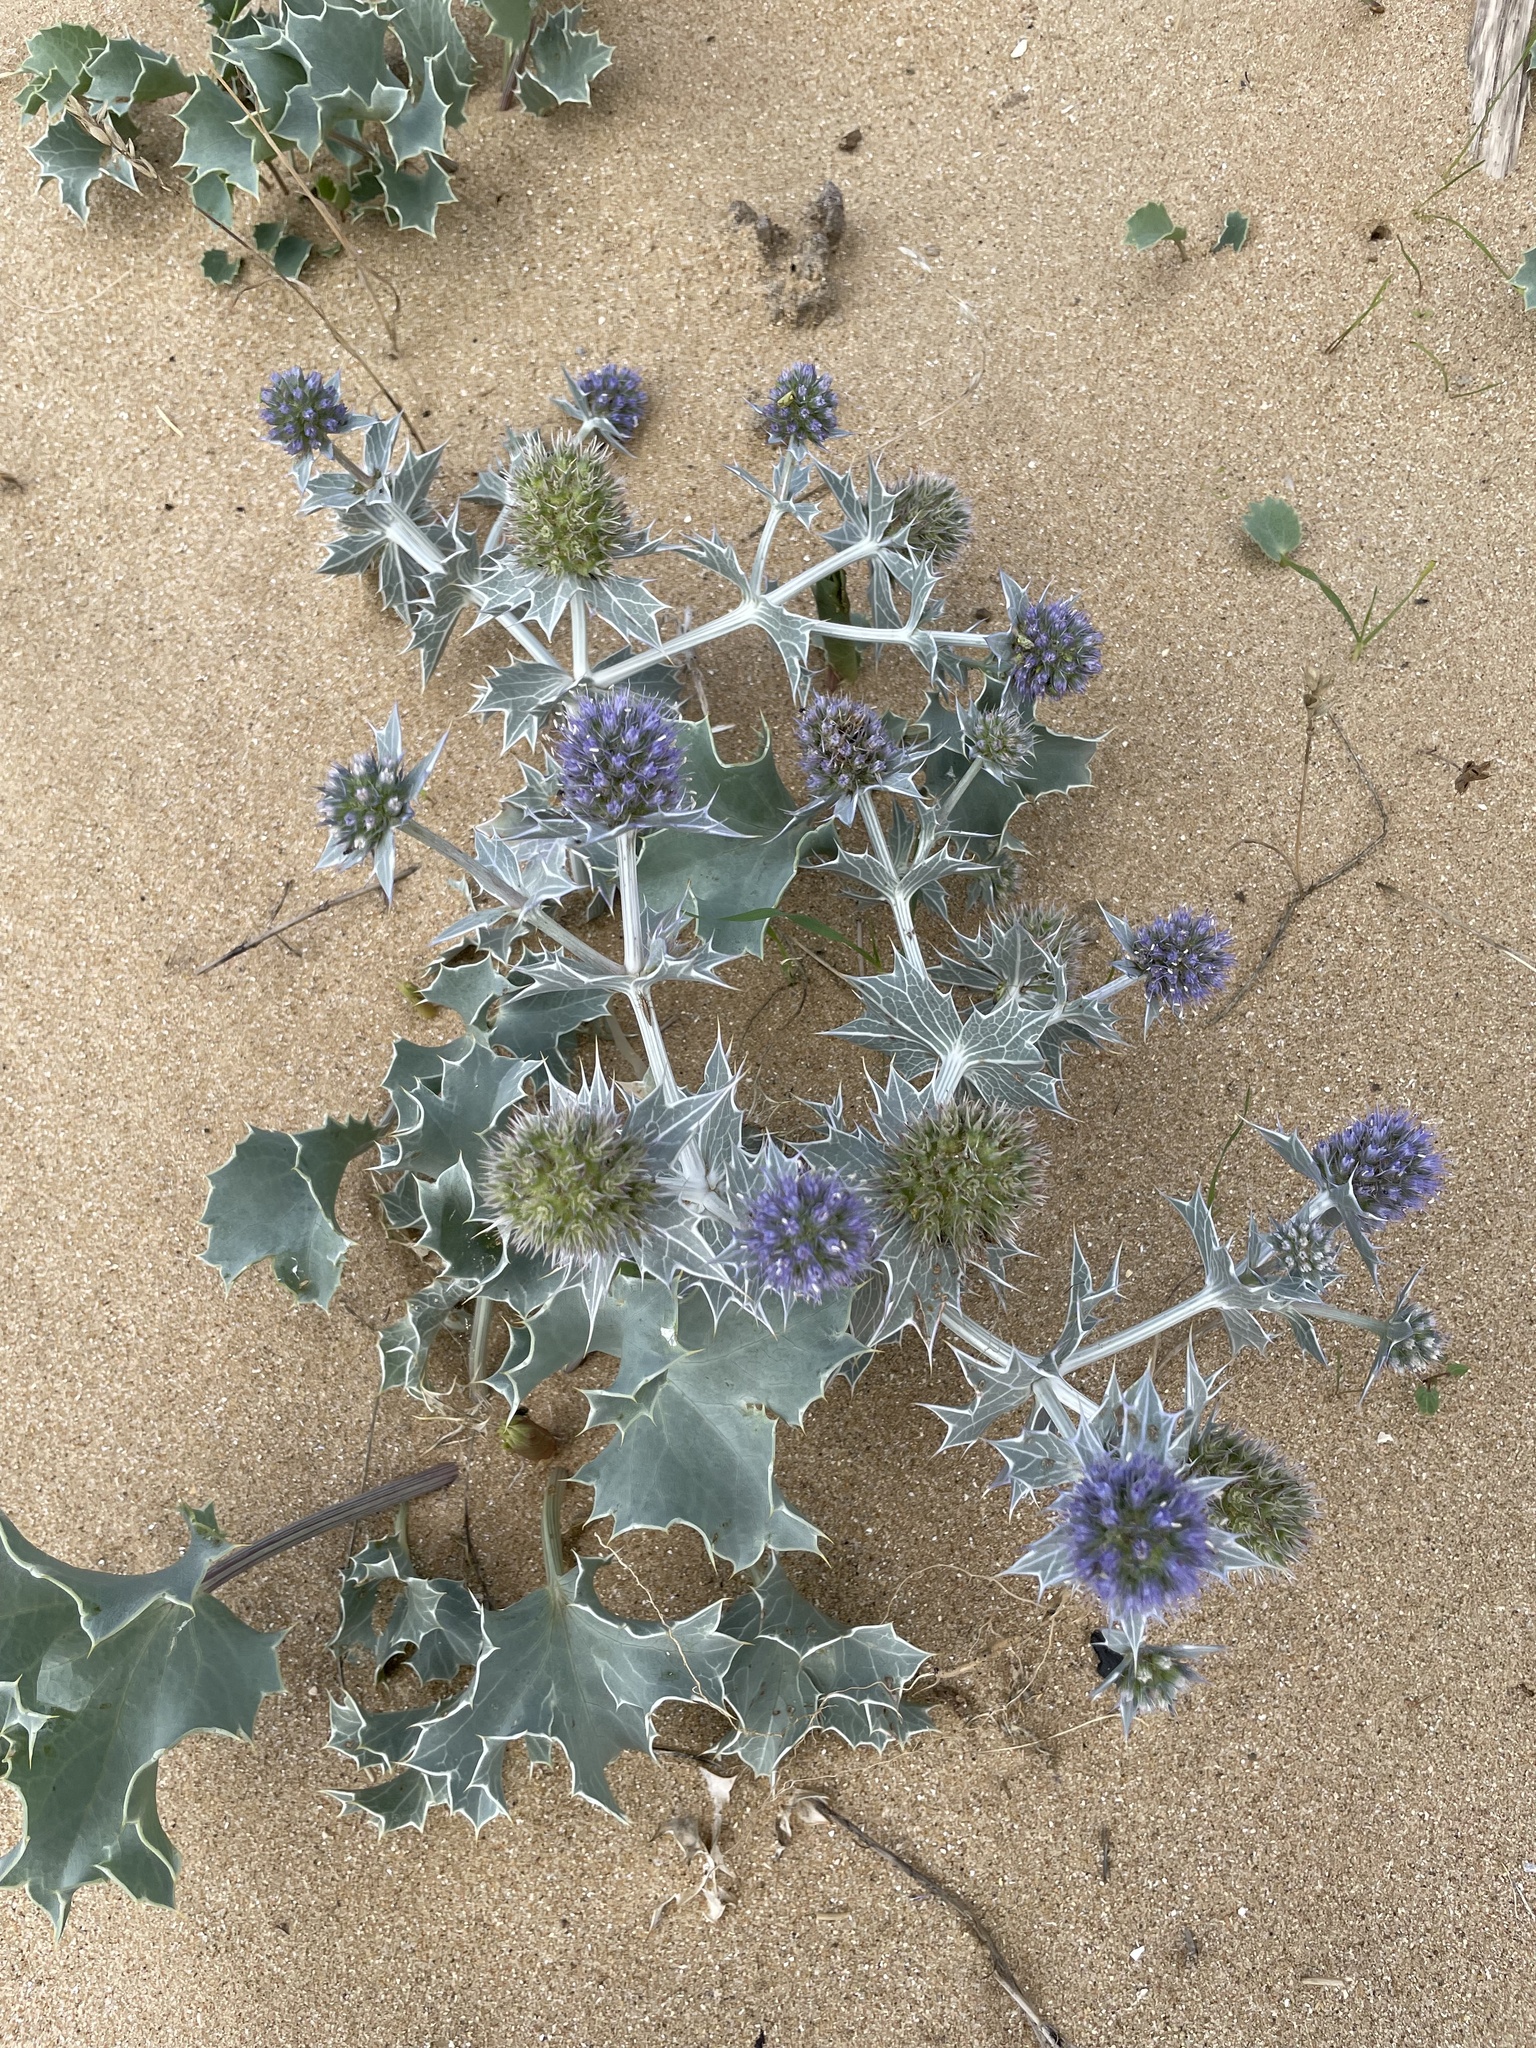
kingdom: Plantae
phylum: Tracheophyta
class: Magnoliopsida
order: Apiales
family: Apiaceae
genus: Eryngium
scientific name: Eryngium maritimum
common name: Sea-holly
